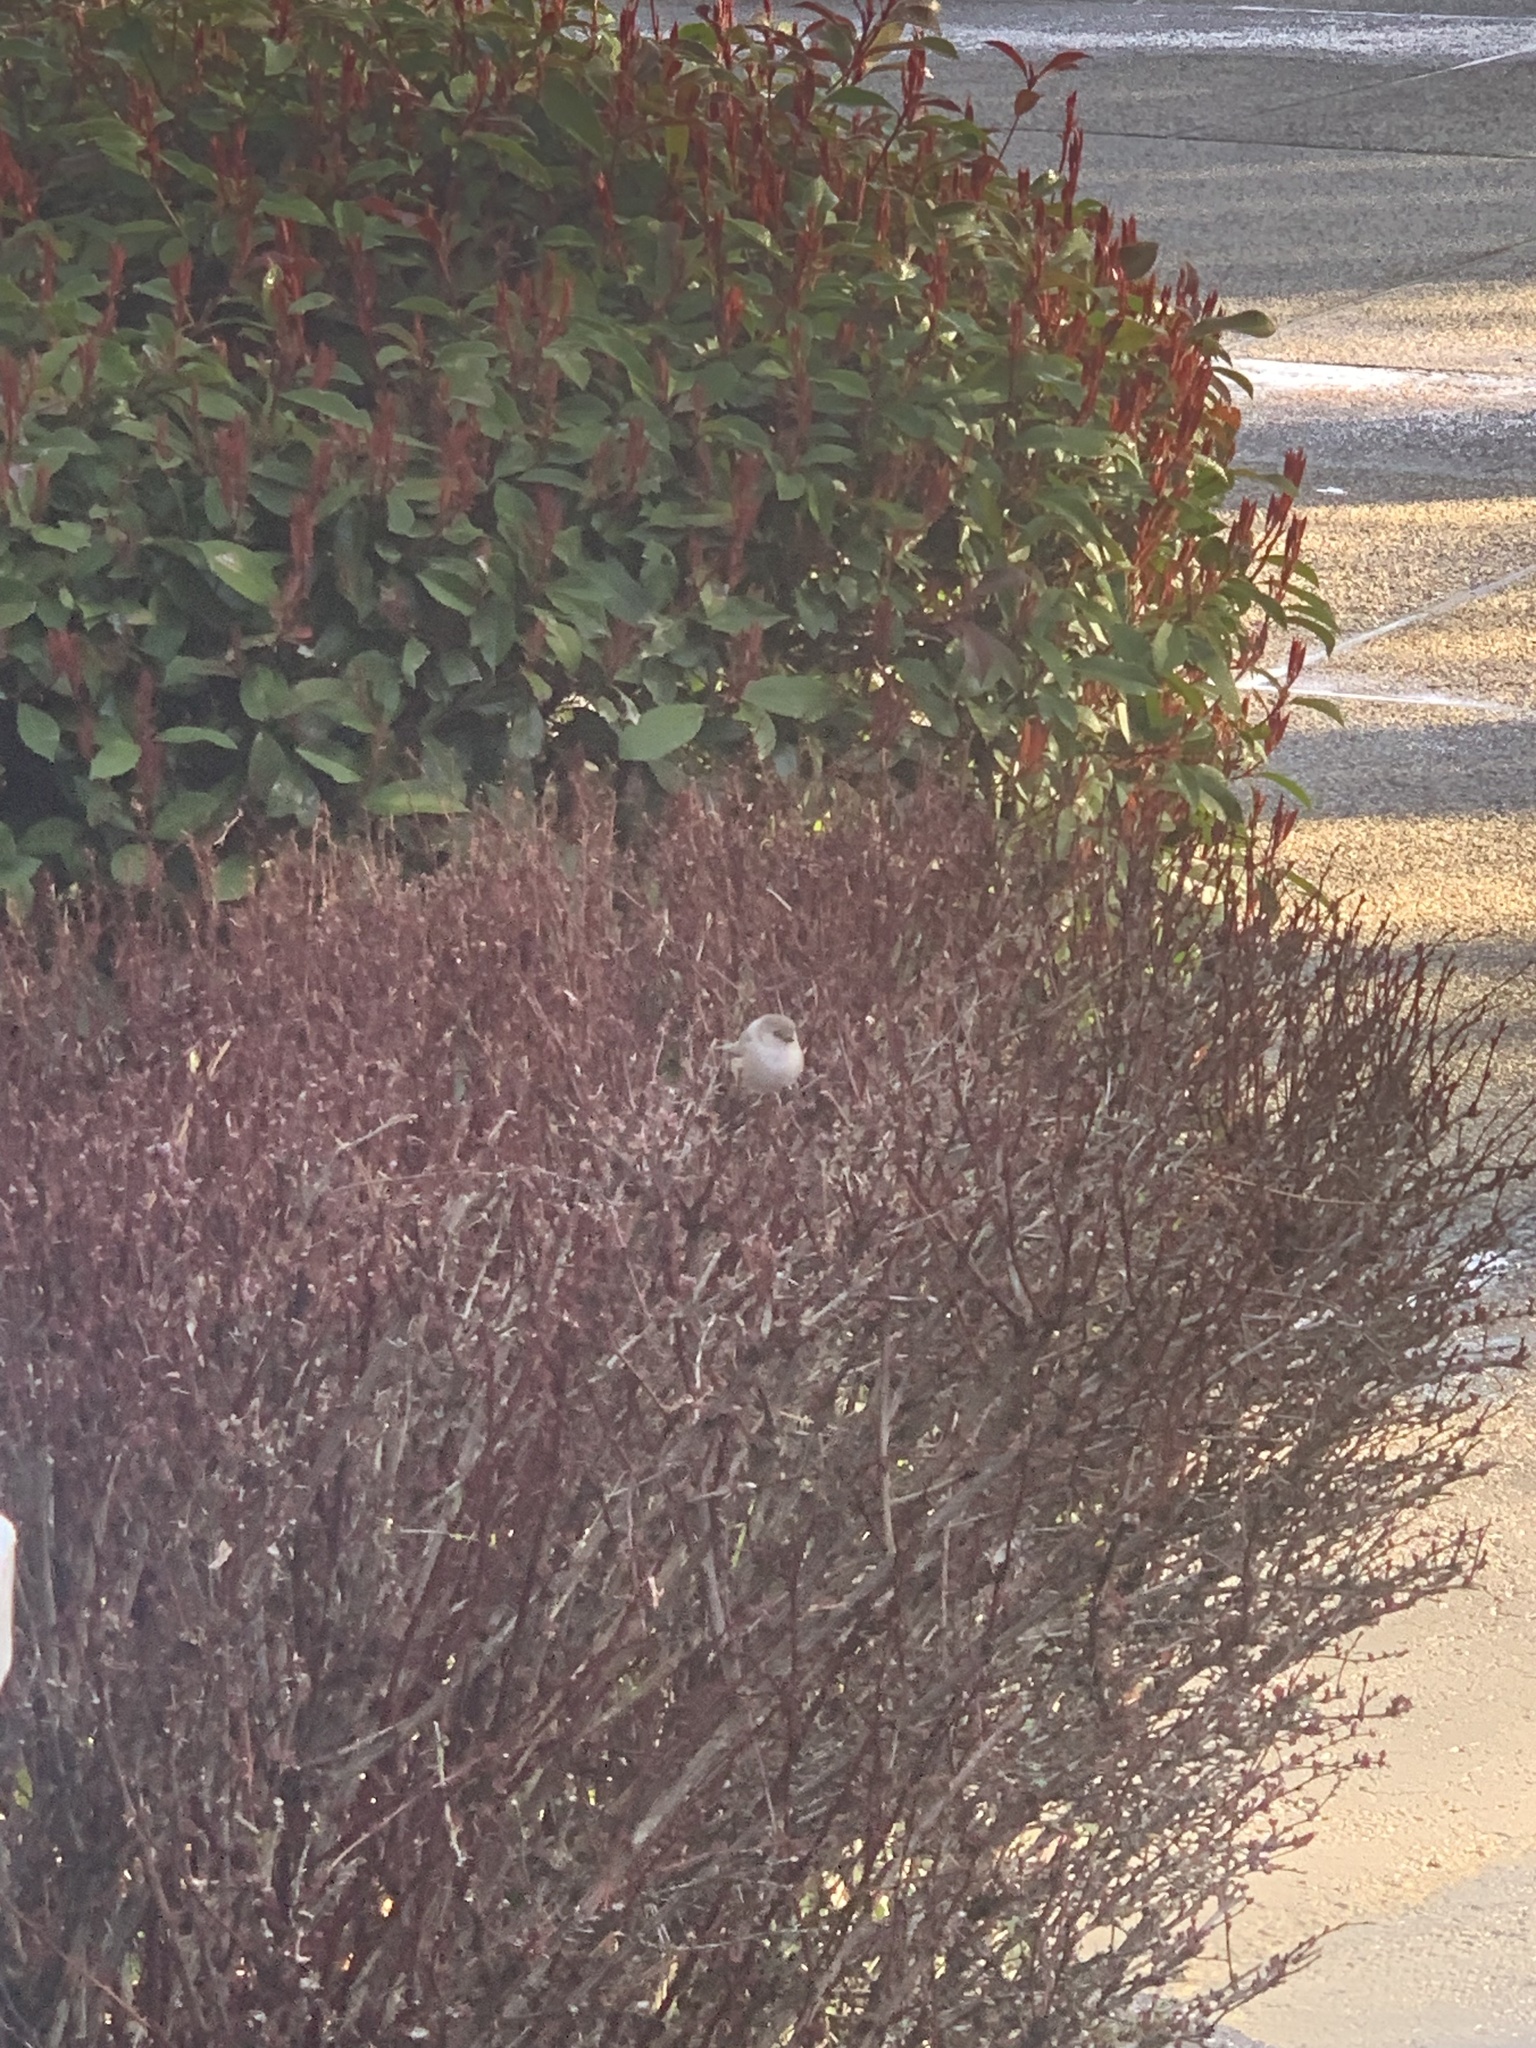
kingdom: Animalia
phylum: Chordata
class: Aves
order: Passeriformes
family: Aegithalidae
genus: Psaltriparus
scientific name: Psaltriparus minimus
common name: American bushtit
